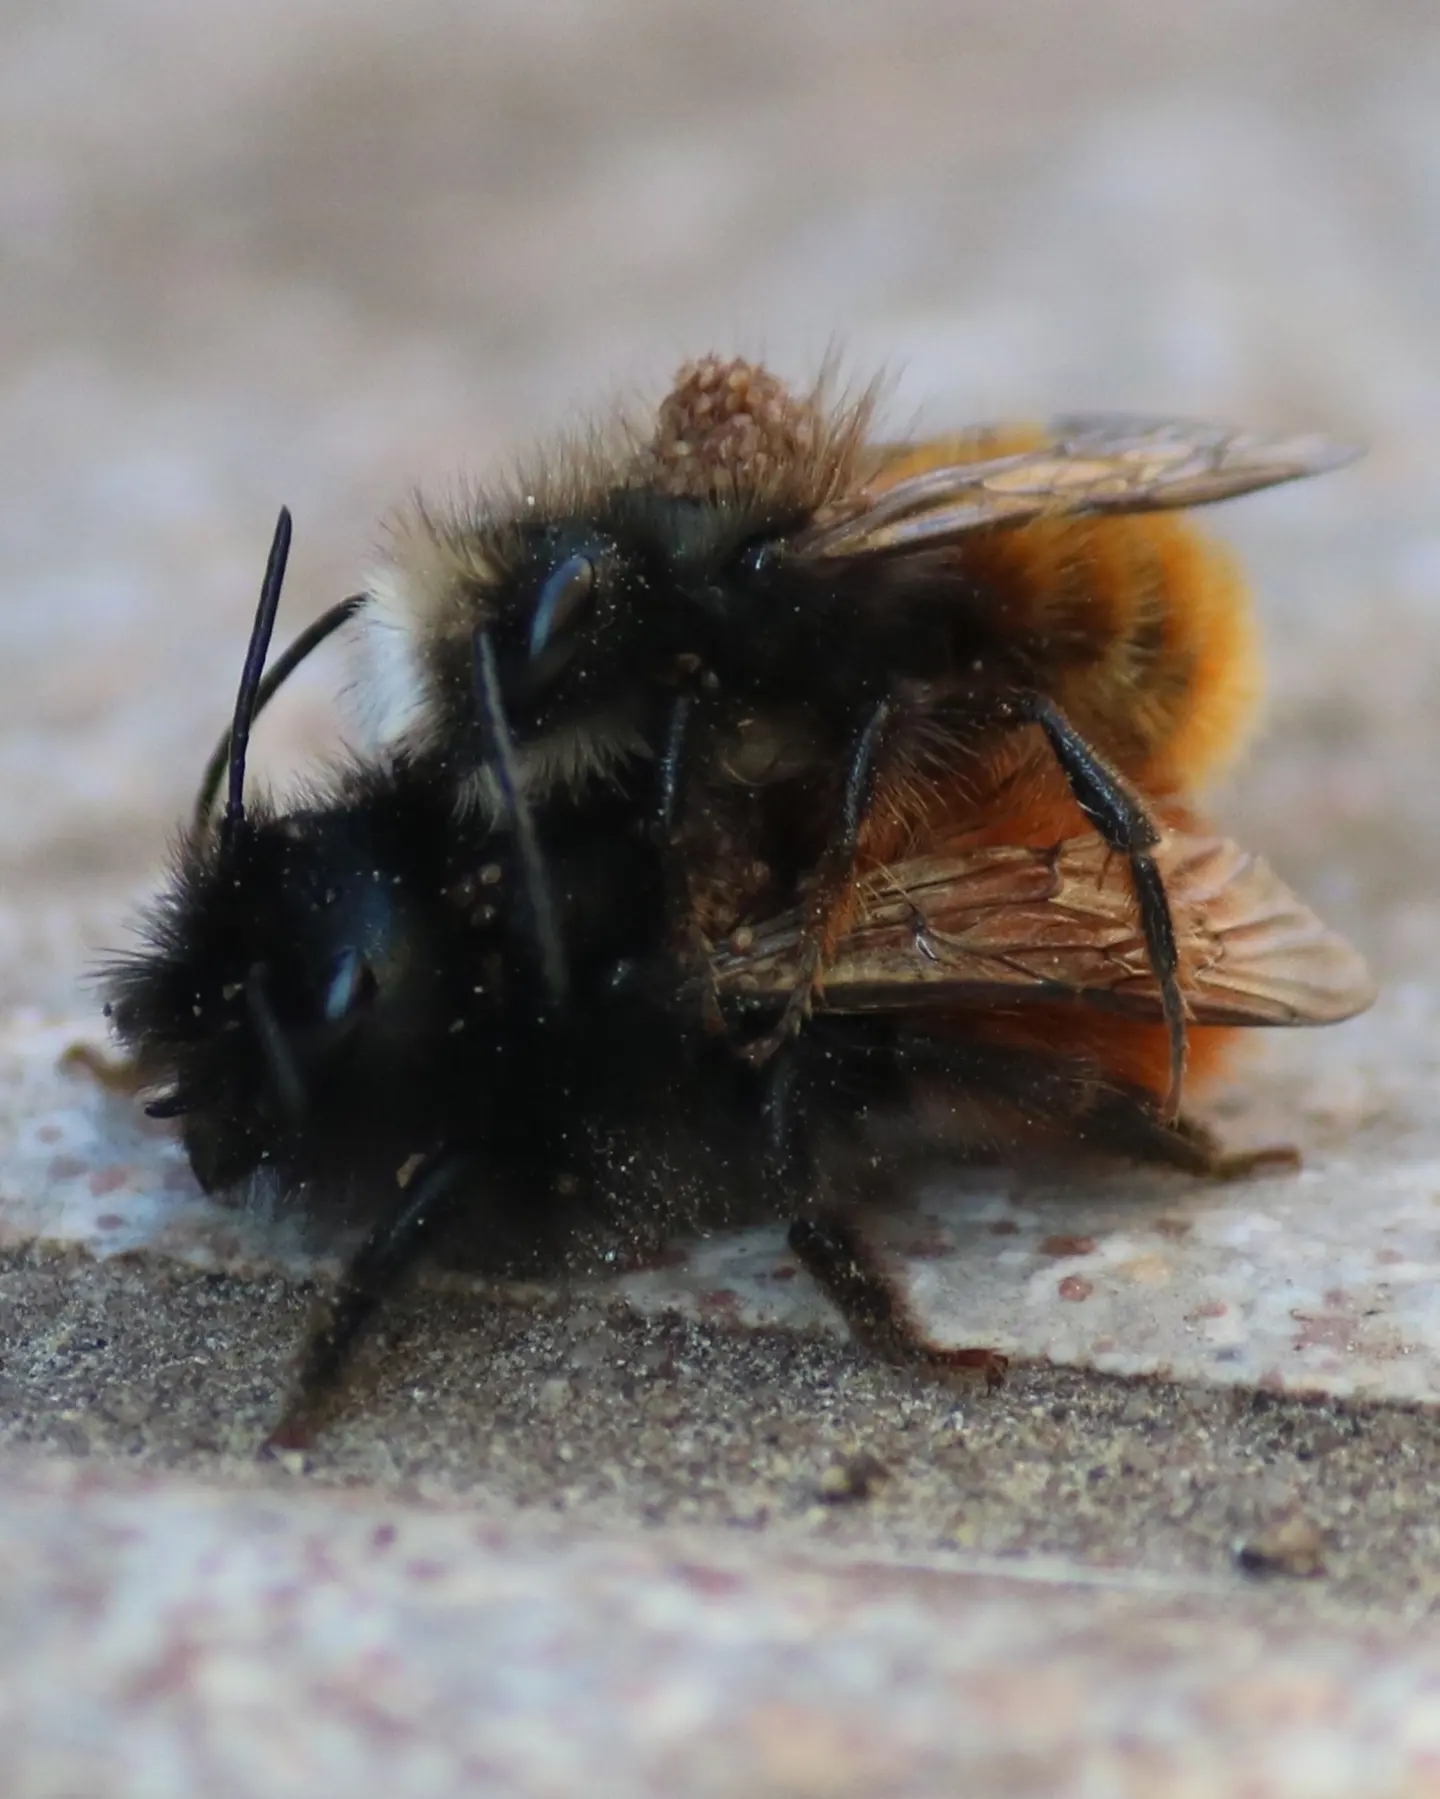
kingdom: Animalia
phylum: Arthropoda
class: Insecta
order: Hymenoptera
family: Megachilidae
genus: Osmia
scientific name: Osmia cornuta
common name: Mason bee
